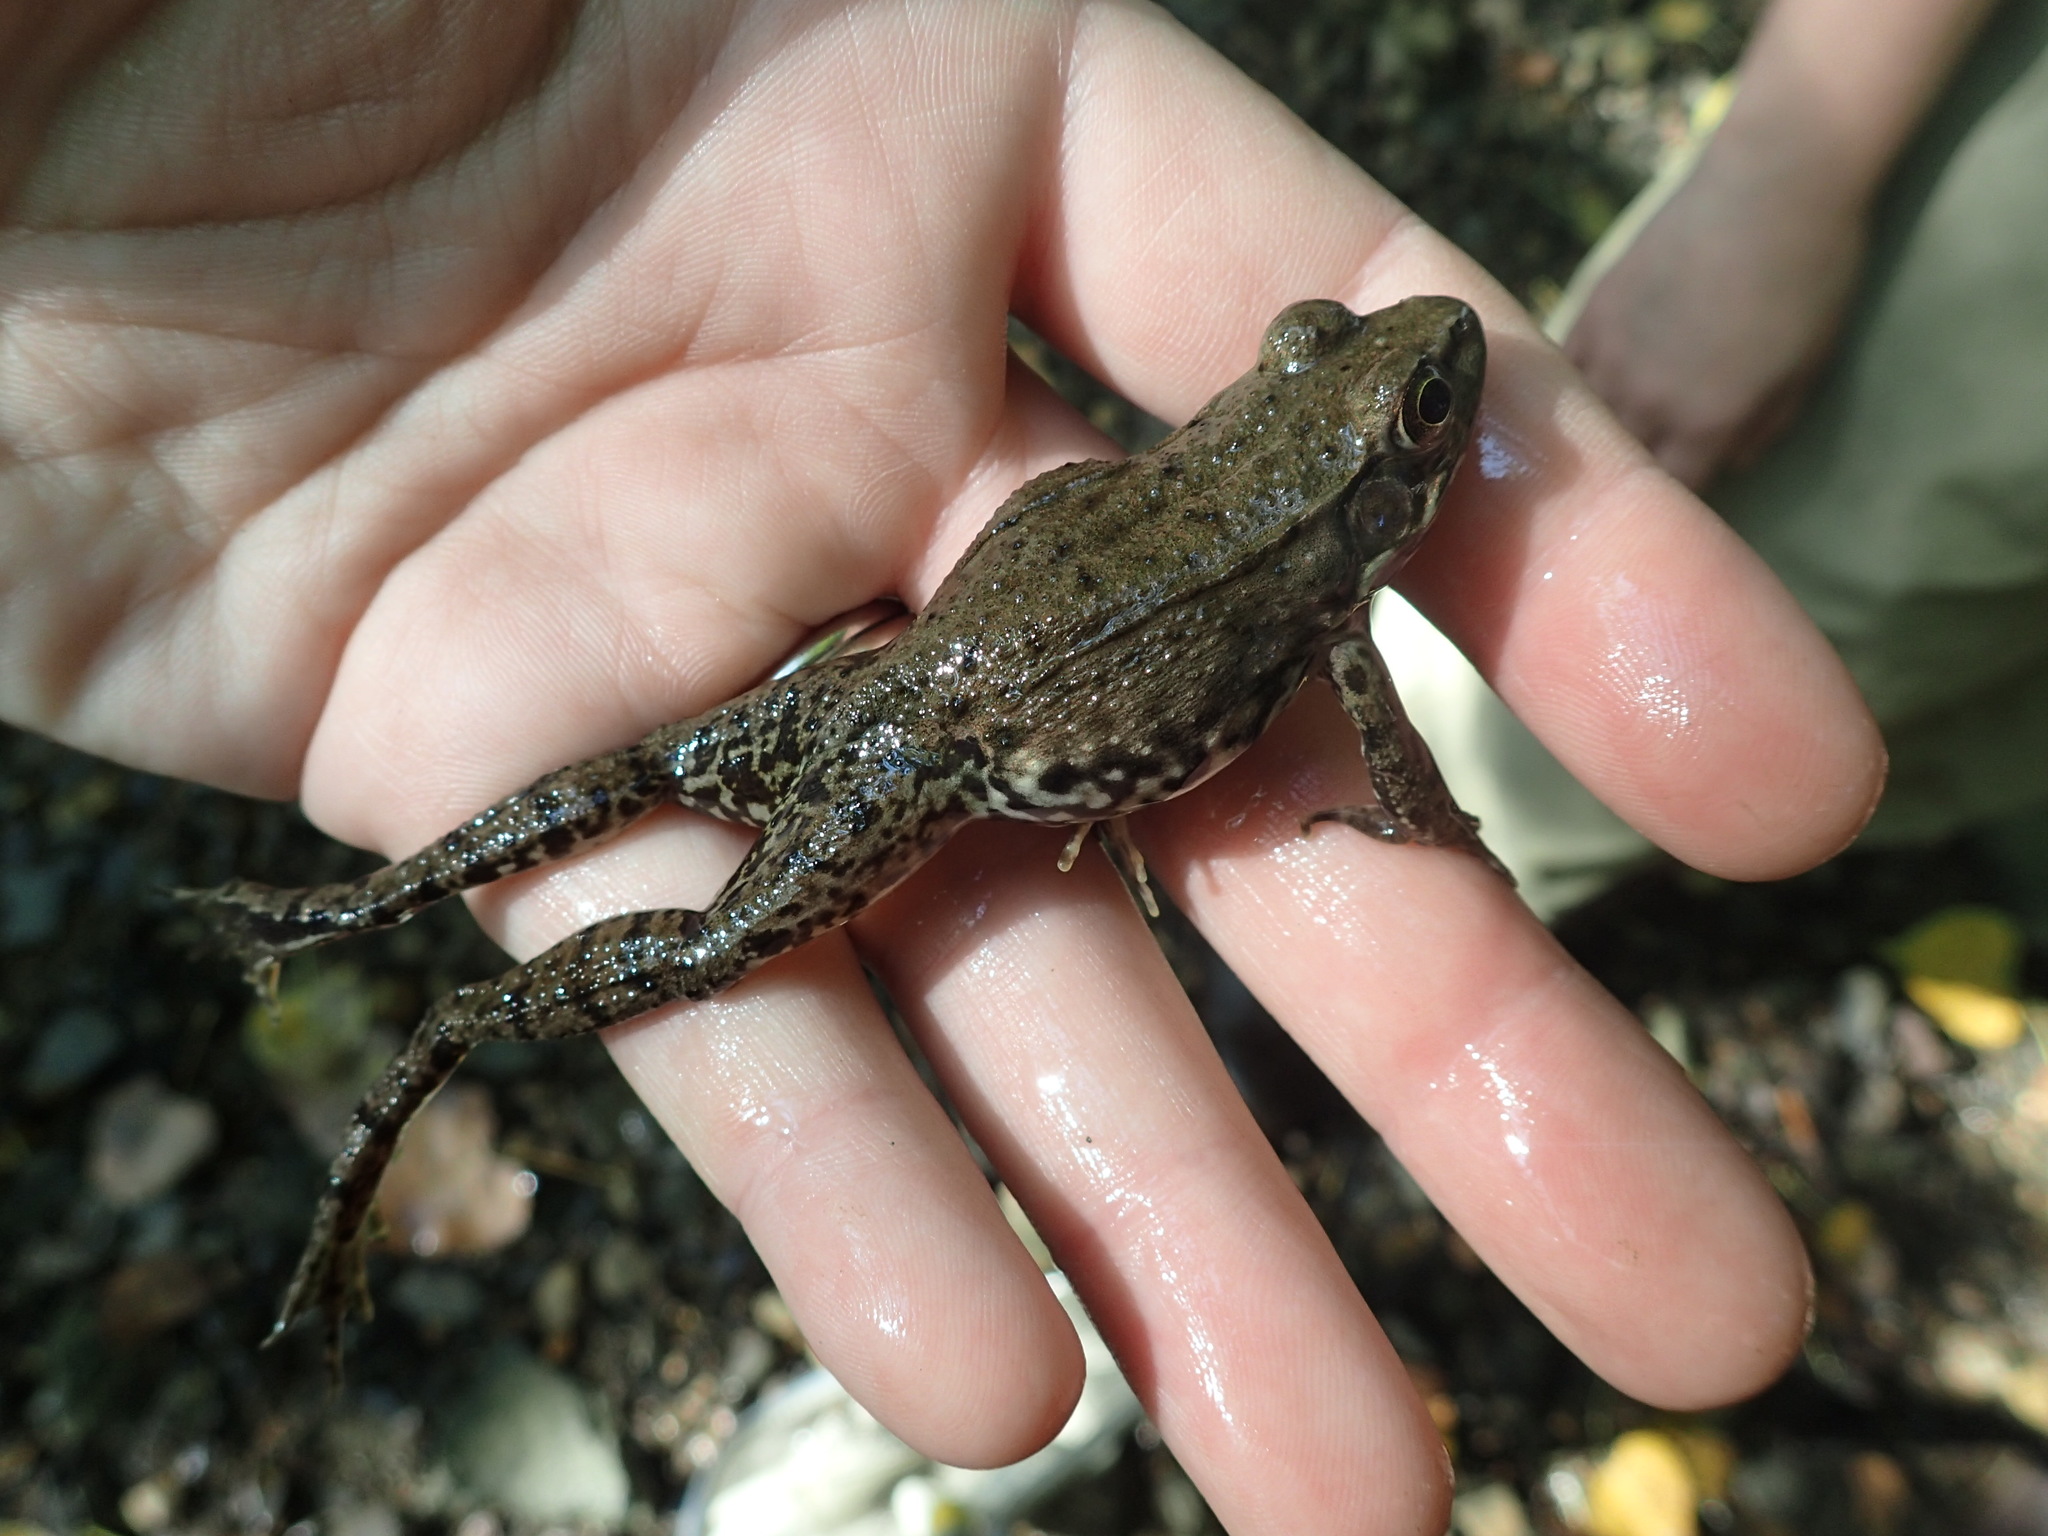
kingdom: Animalia
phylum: Chordata
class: Amphibia
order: Anura
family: Ranidae
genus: Lithobates
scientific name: Lithobates clamitans
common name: Green frog
